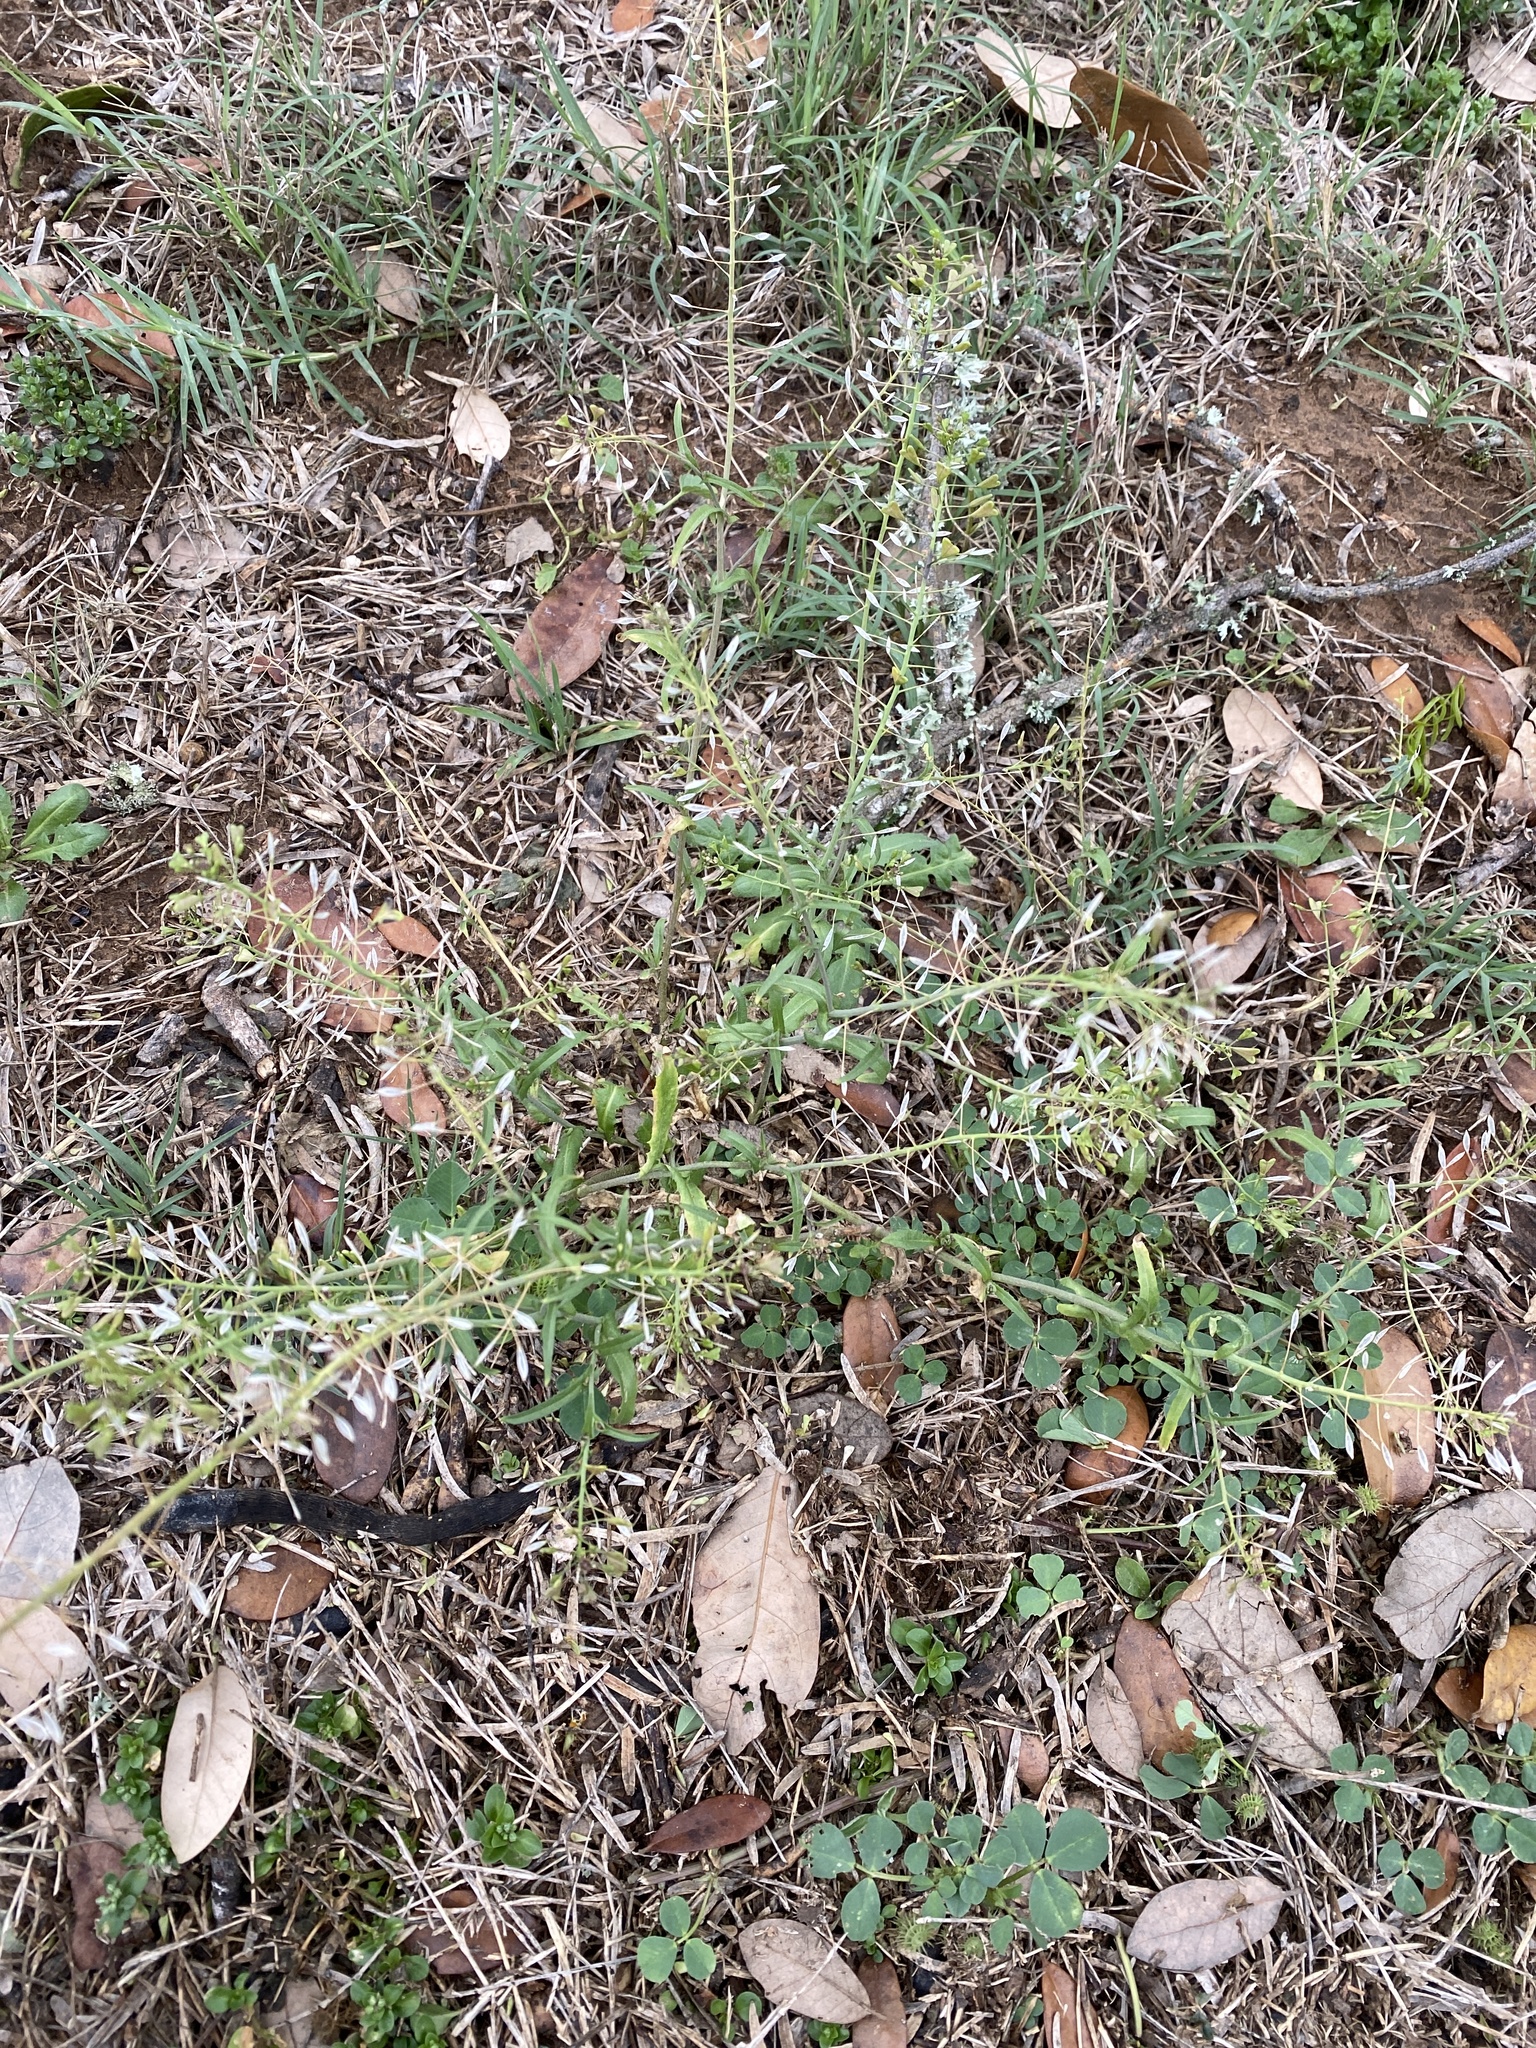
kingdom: Plantae
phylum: Tracheophyta
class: Magnoliopsida
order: Brassicales
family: Brassicaceae
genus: Capsella
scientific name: Capsella bursa-pastoris
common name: Shepherd's purse
